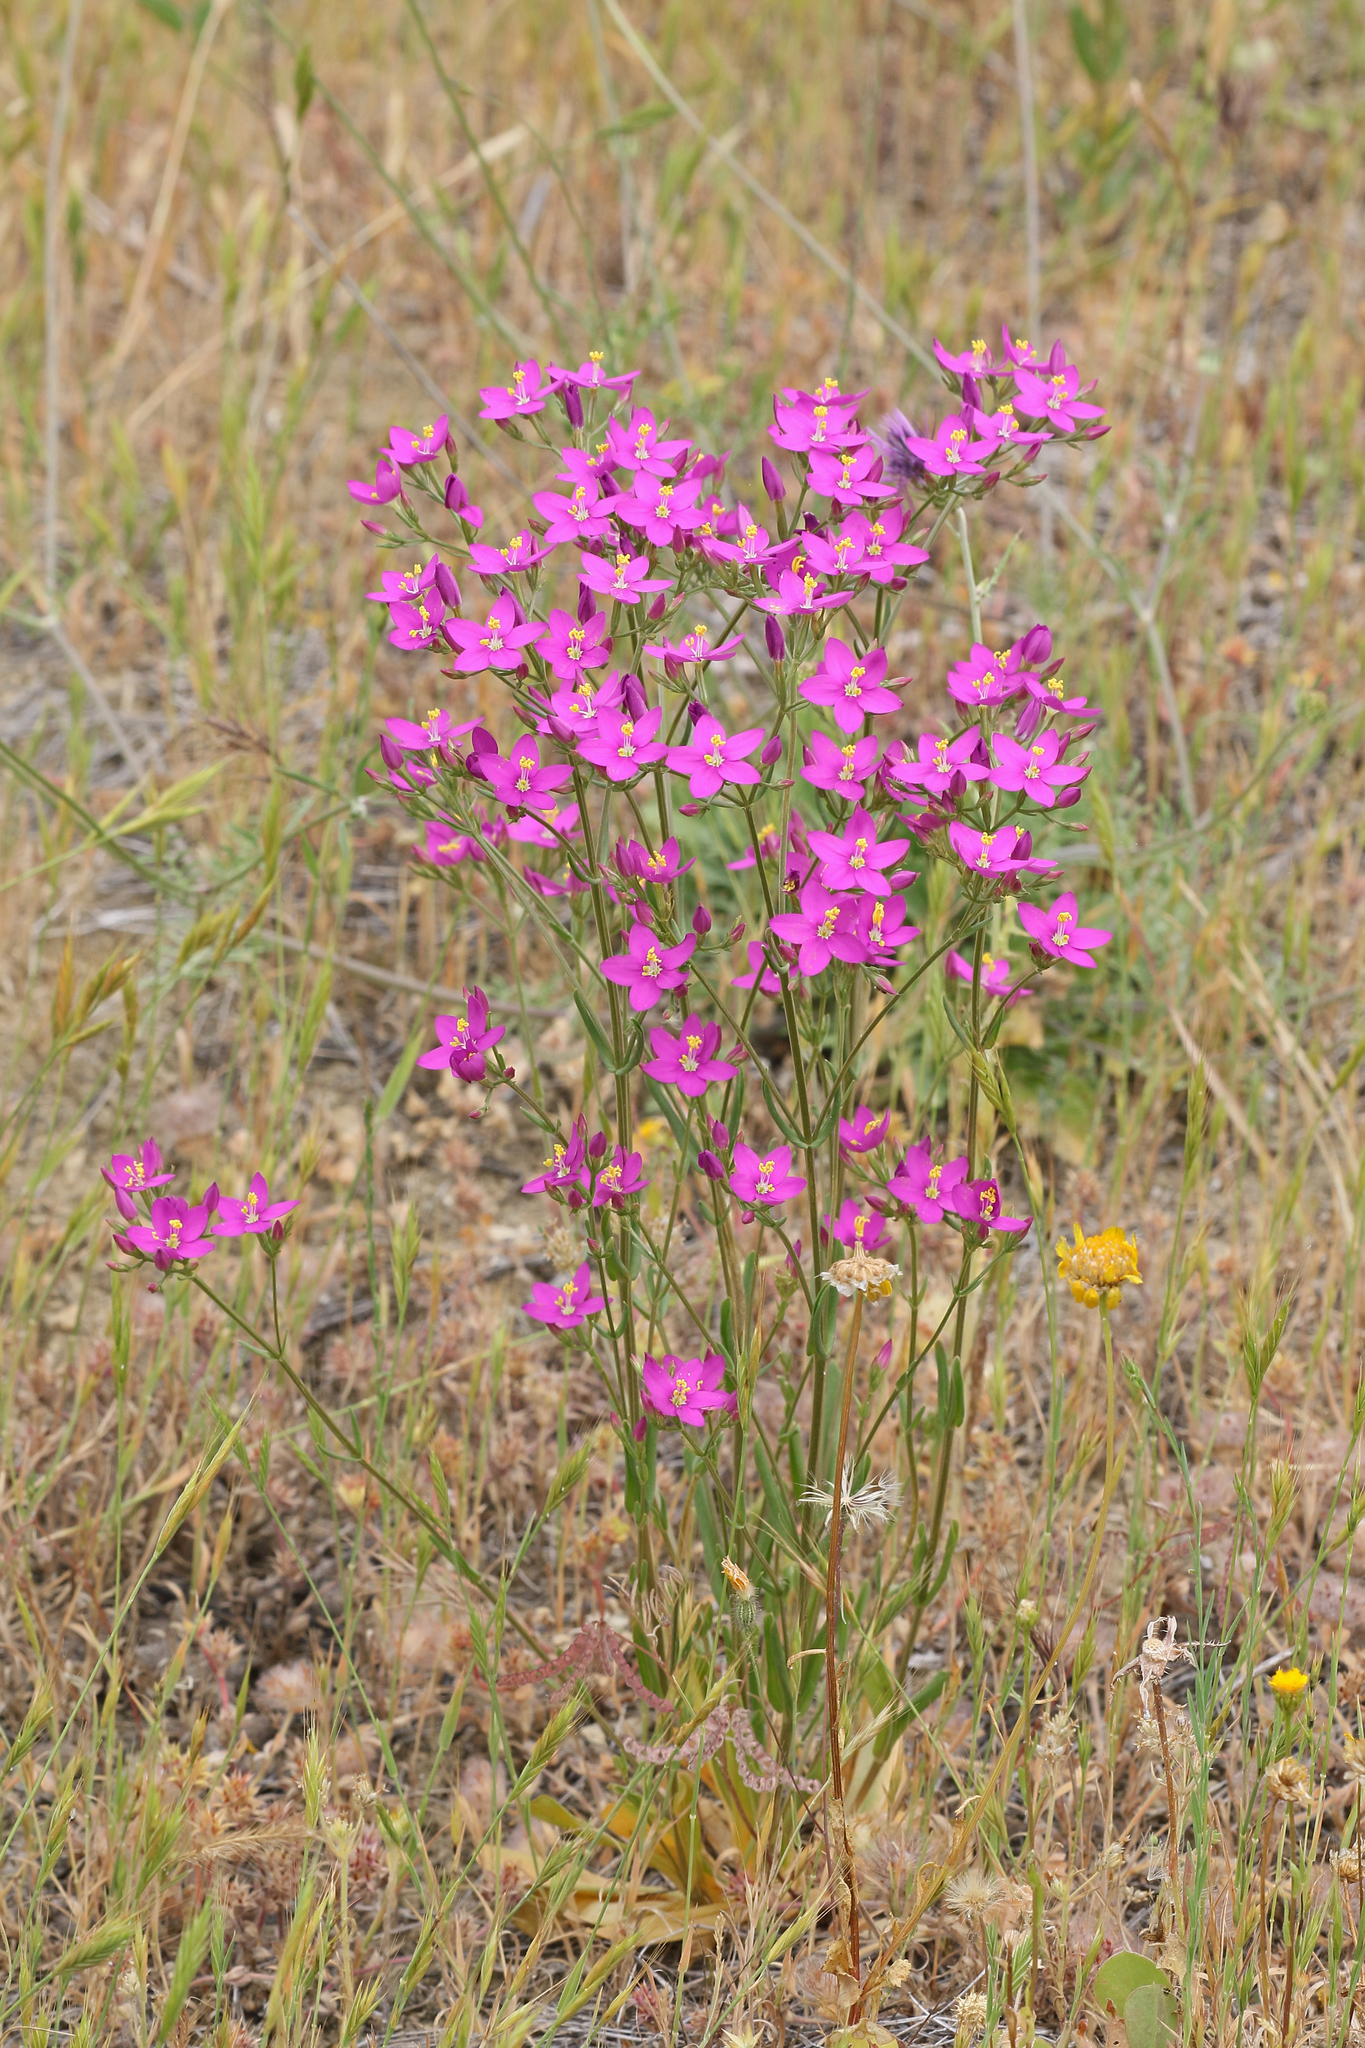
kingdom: Plantae
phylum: Tracheophyta
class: Magnoliopsida
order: Gentianales
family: Gentianaceae
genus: Centaurium
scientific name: Centaurium erythraea
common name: Common centaury
